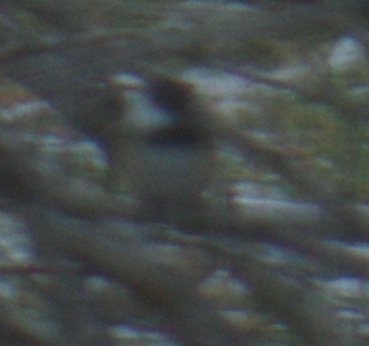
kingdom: Animalia
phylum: Chordata
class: Aves
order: Passeriformes
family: Paridae
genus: Poecile
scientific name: Poecile atricapillus
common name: Black-capped chickadee
